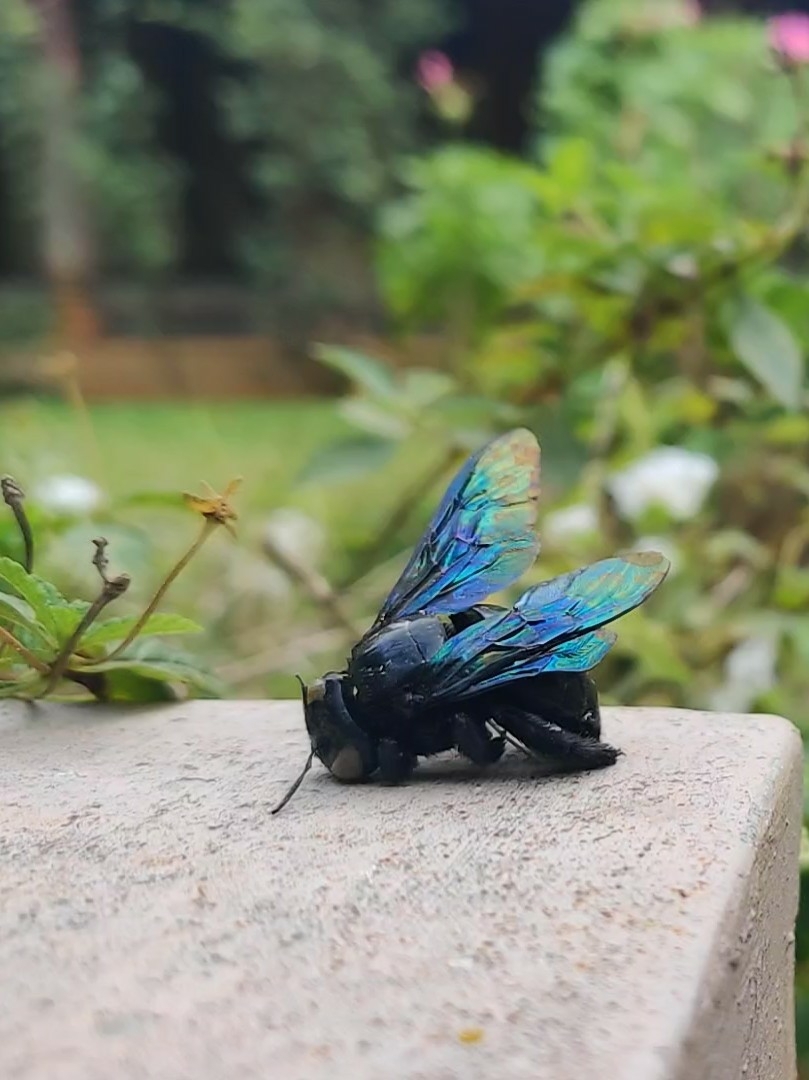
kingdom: Animalia
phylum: Arthropoda
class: Insecta
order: Hymenoptera
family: Apidae
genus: Xylocopa
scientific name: Xylocopa tenuiscapa
